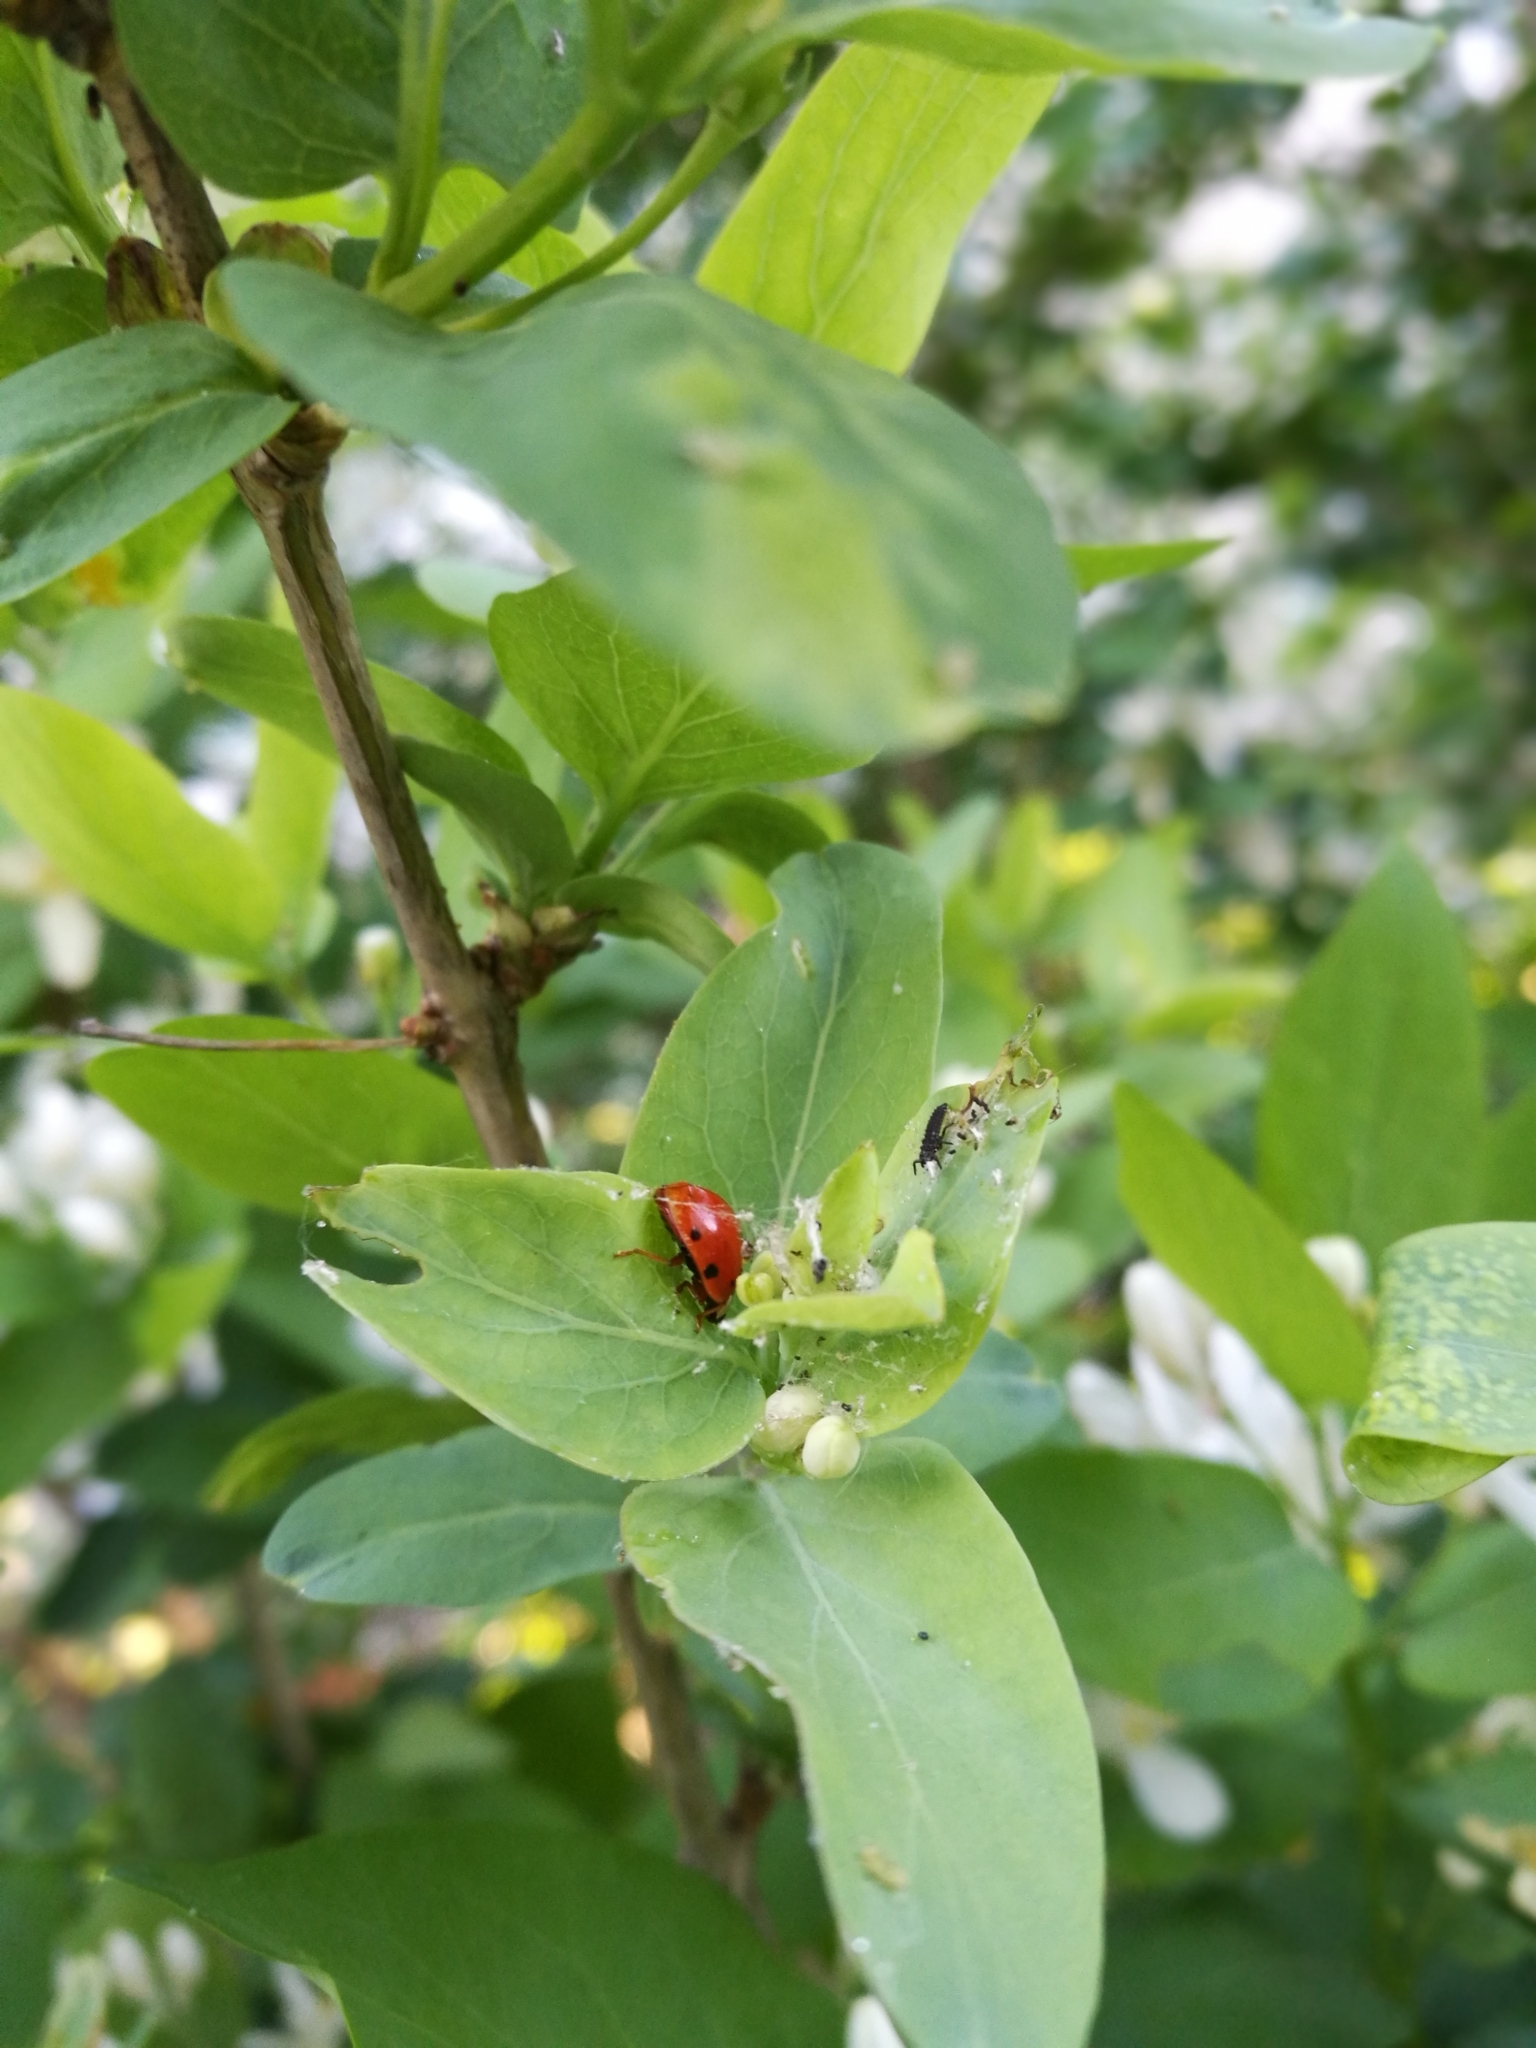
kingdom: Animalia
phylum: Arthropoda
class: Insecta
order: Coleoptera
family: Coccinellidae
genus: Coccinella
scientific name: Coccinella septempunctata
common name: Sevenspotted lady beetle
